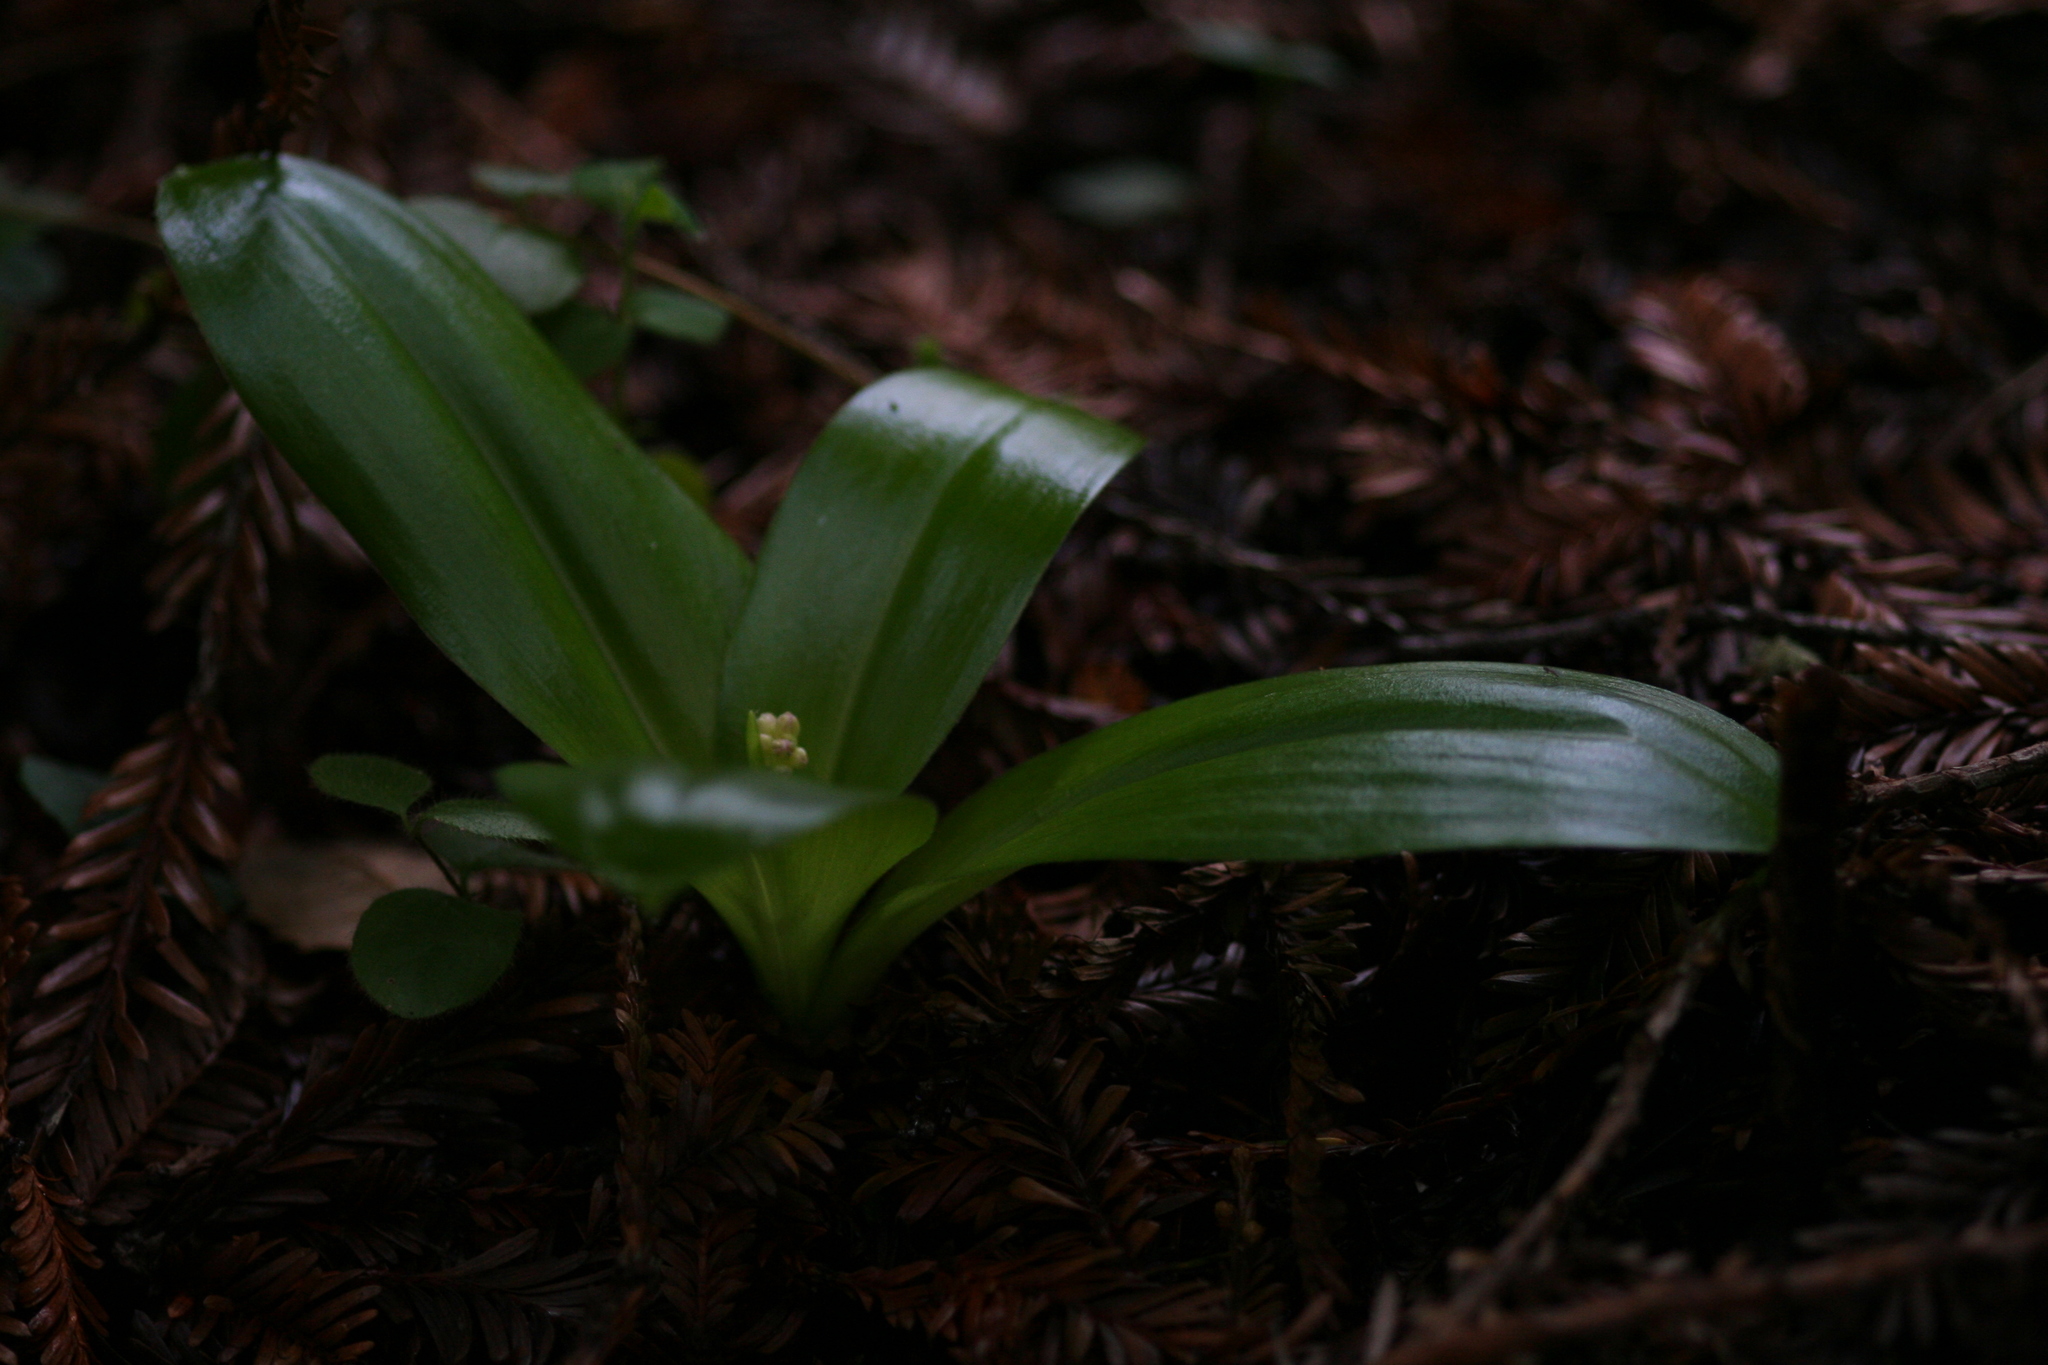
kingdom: Plantae
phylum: Tracheophyta
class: Liliopsida
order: Liliales
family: Liliaceae
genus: Clintonia
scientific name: Clintonia andrewsiana
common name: Red clintonia
